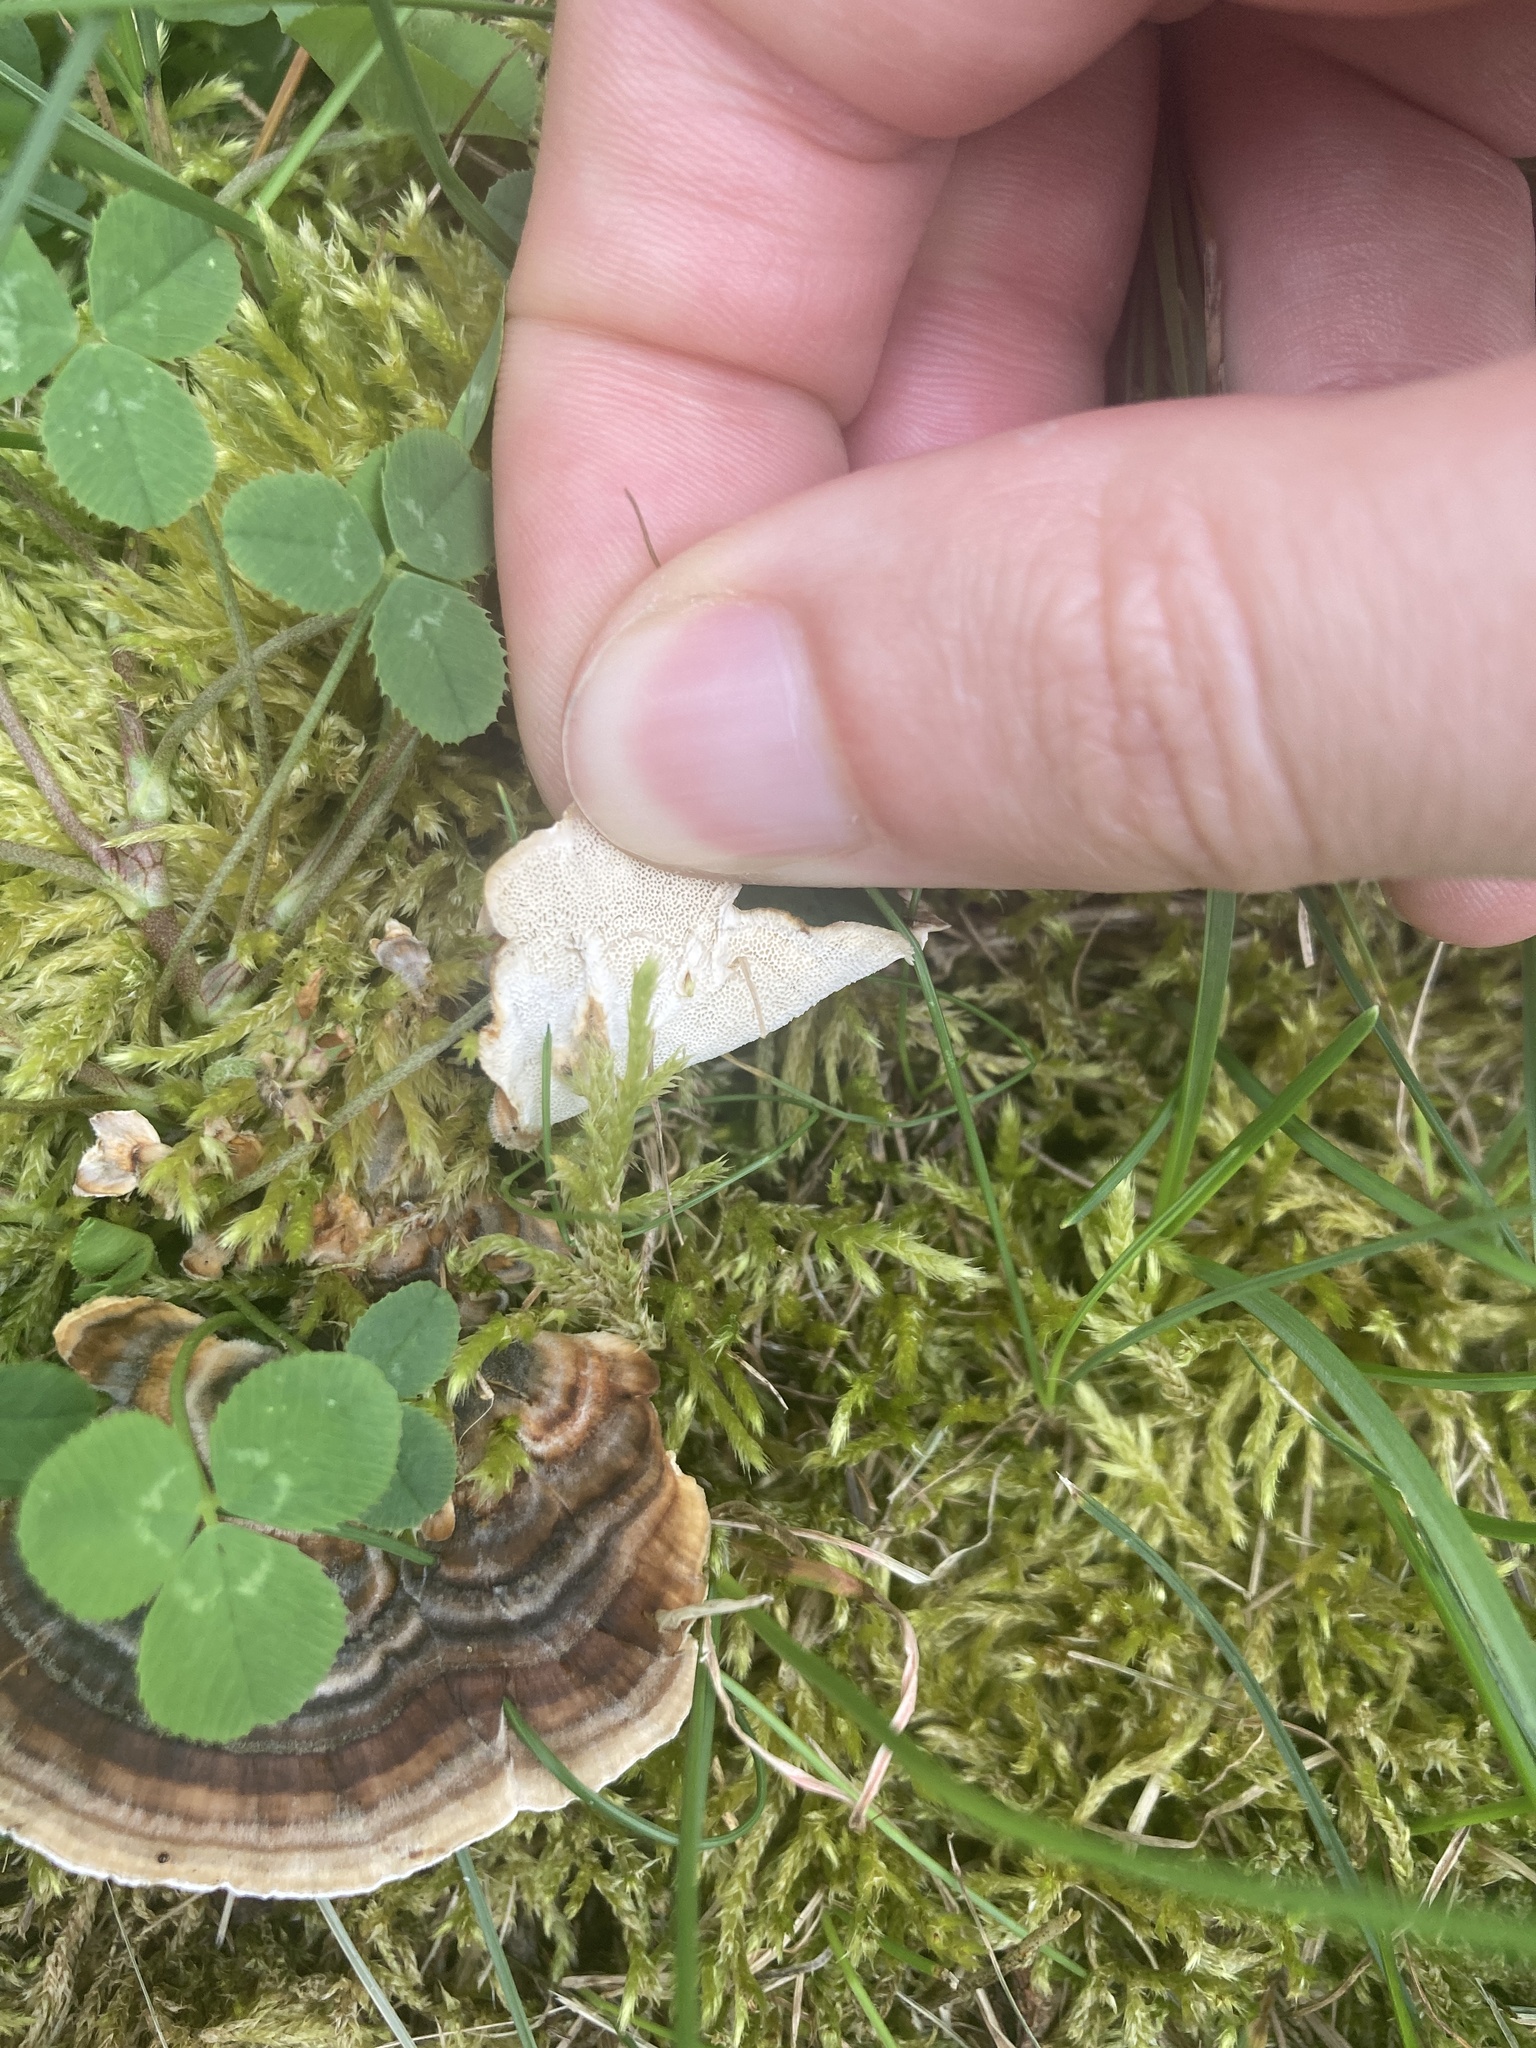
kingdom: Fungi
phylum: Basidiomycota
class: Agaricomycetes
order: Polyporales
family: Polyporaceae
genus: Trametes
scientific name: Trametes versicolor
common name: Turkeytail
